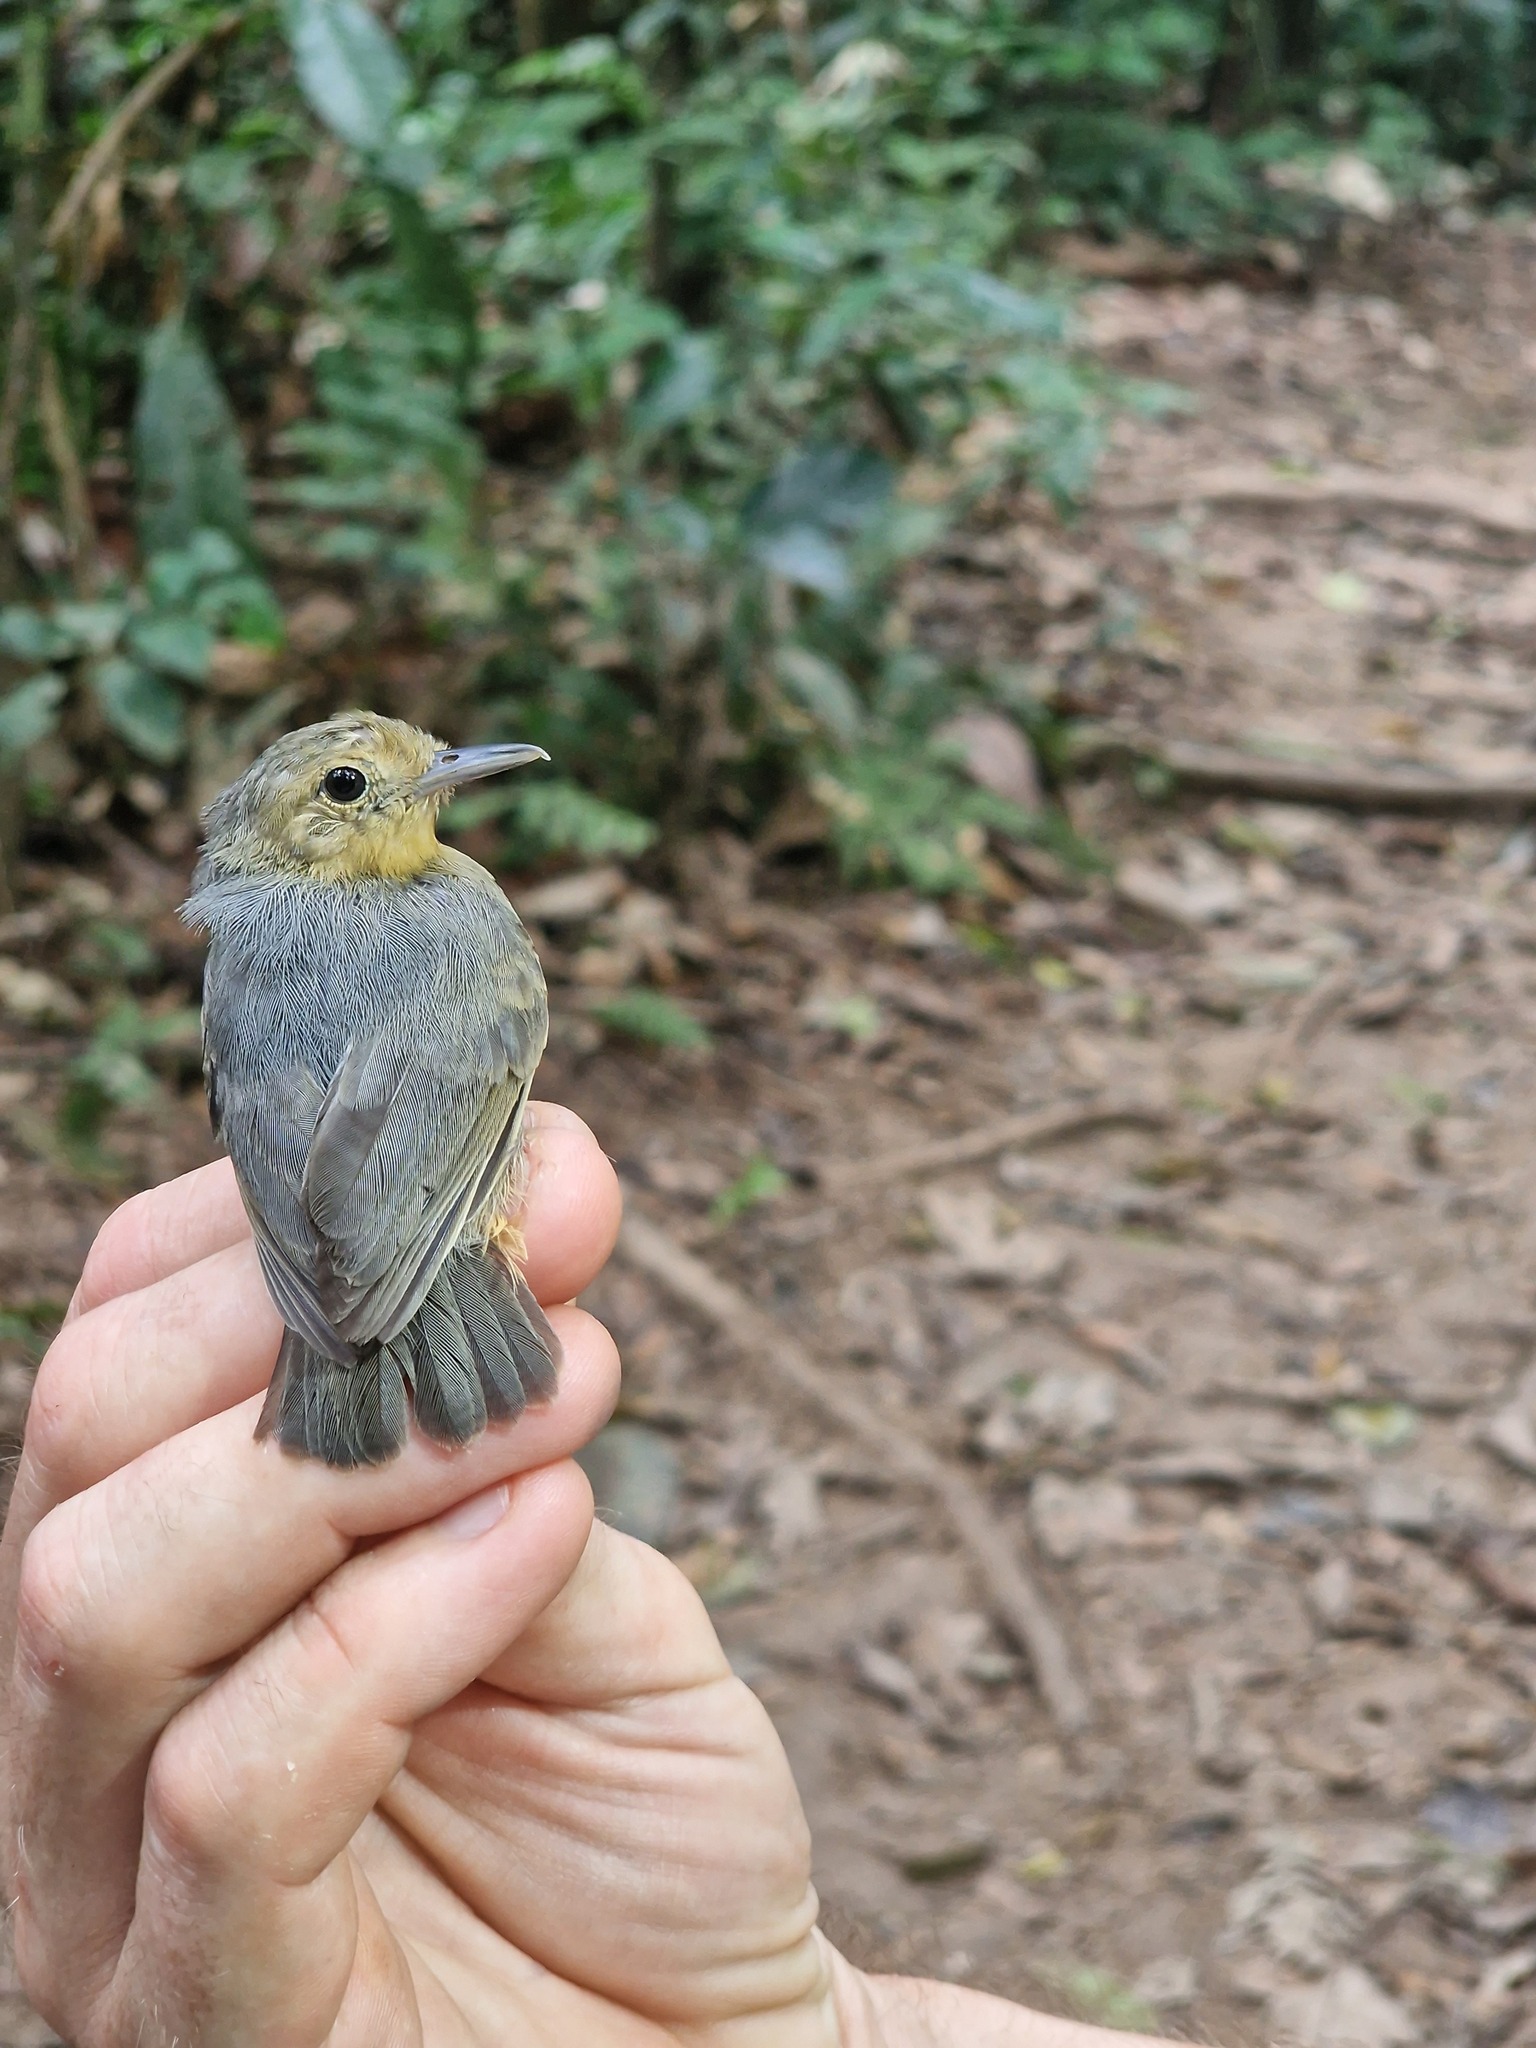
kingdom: Animalia
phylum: Chordata
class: Aves
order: Passeriformes
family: Thamnophilidae
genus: Myrmotherula
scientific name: Myrmotherula menetriesii
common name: Grey antwren
